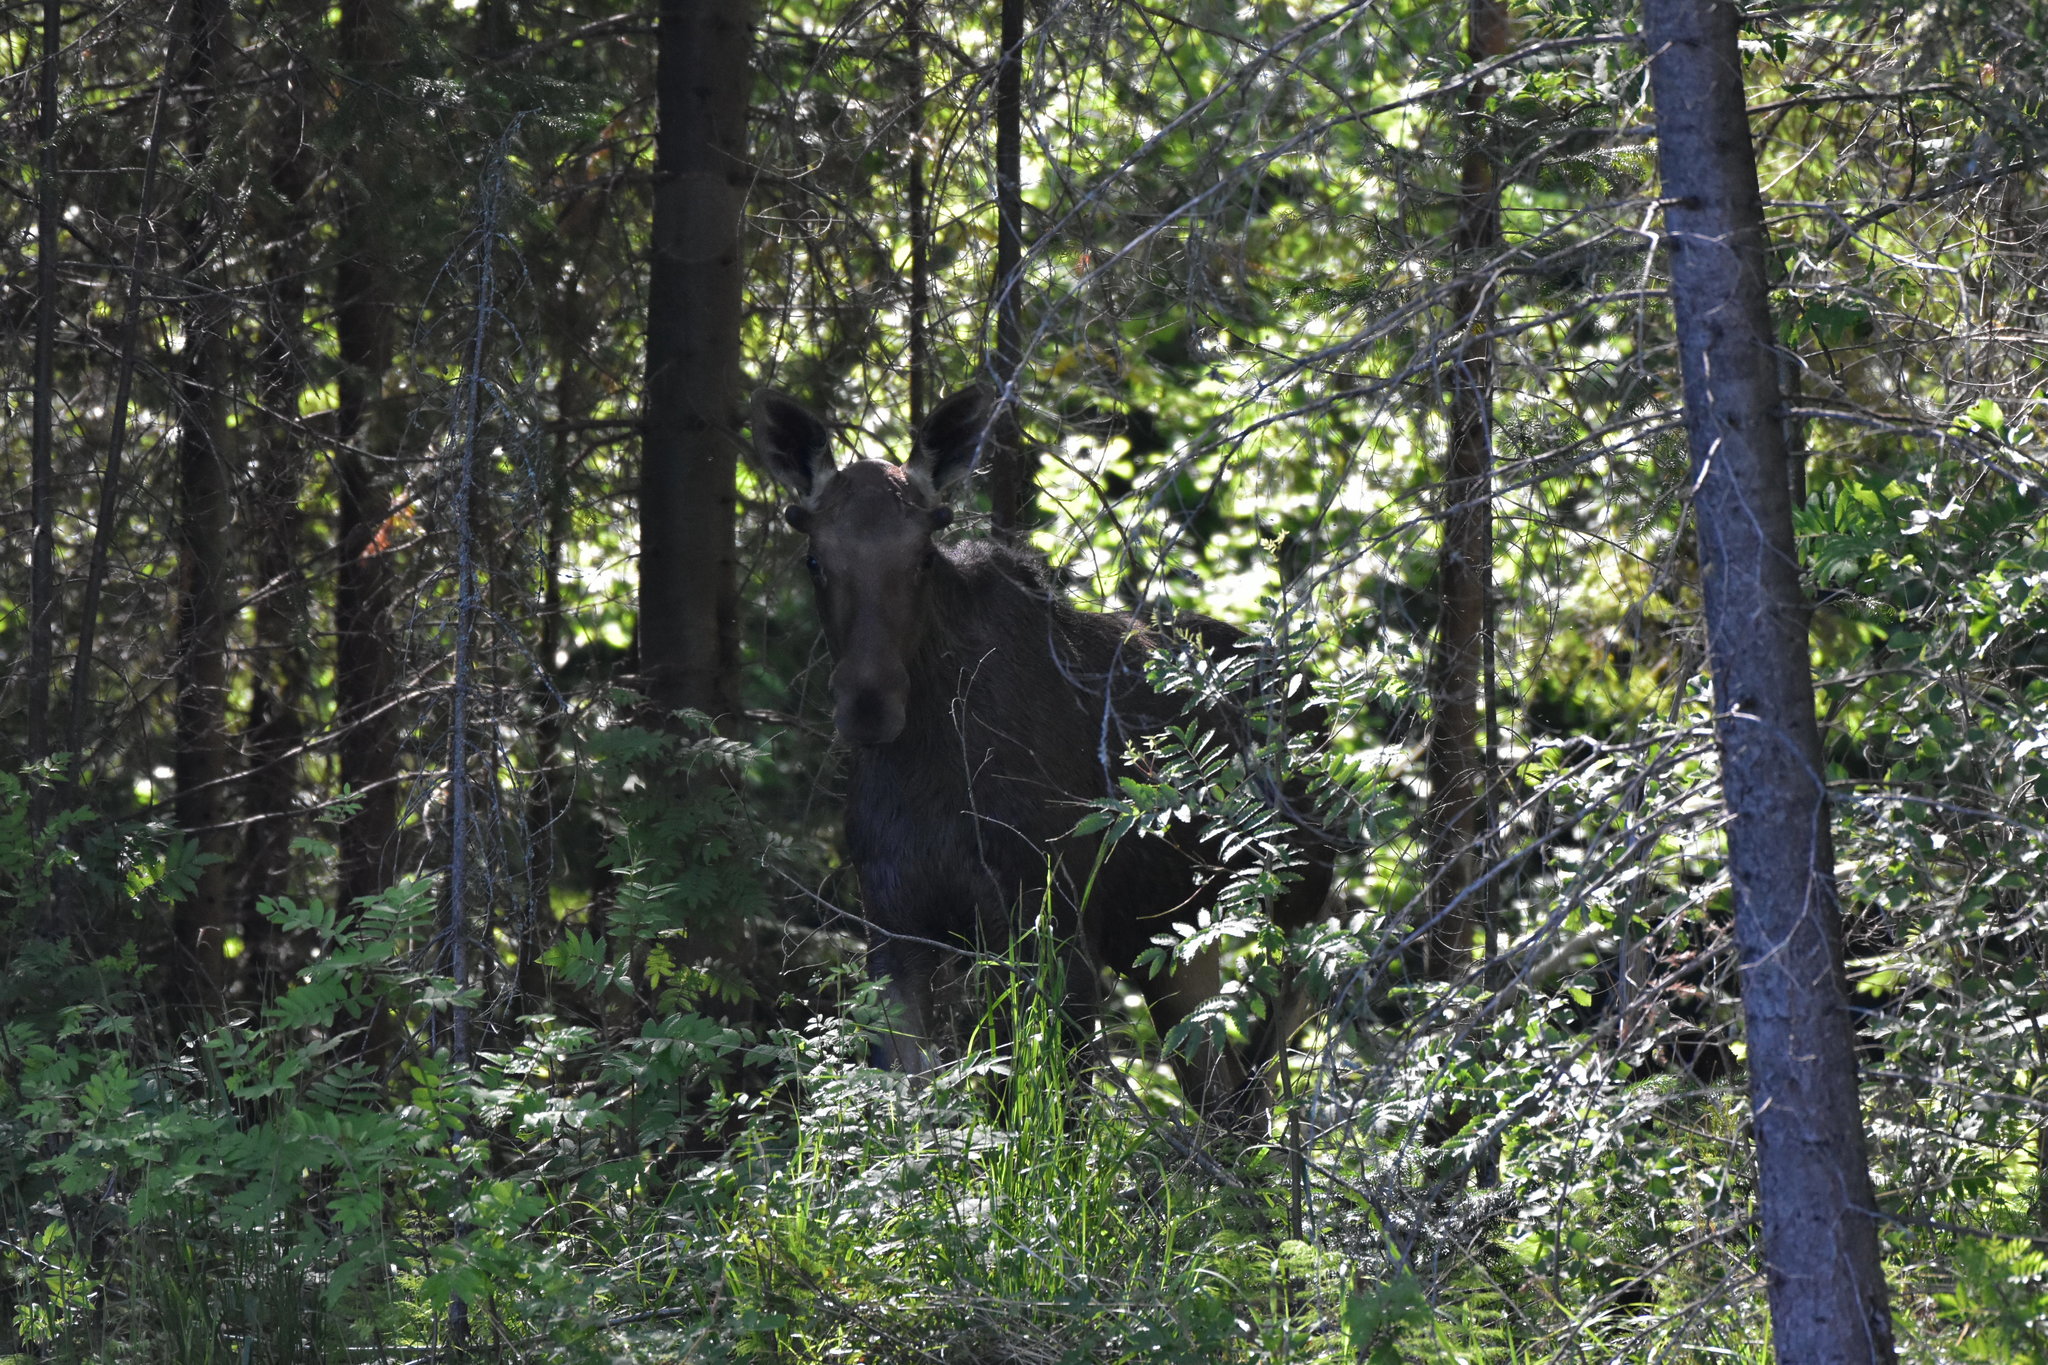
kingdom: Animalia
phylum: Chordata
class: Mammalia
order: Artiodactyla
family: Cervidae
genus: Alces
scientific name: Alces alces
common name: Moose
